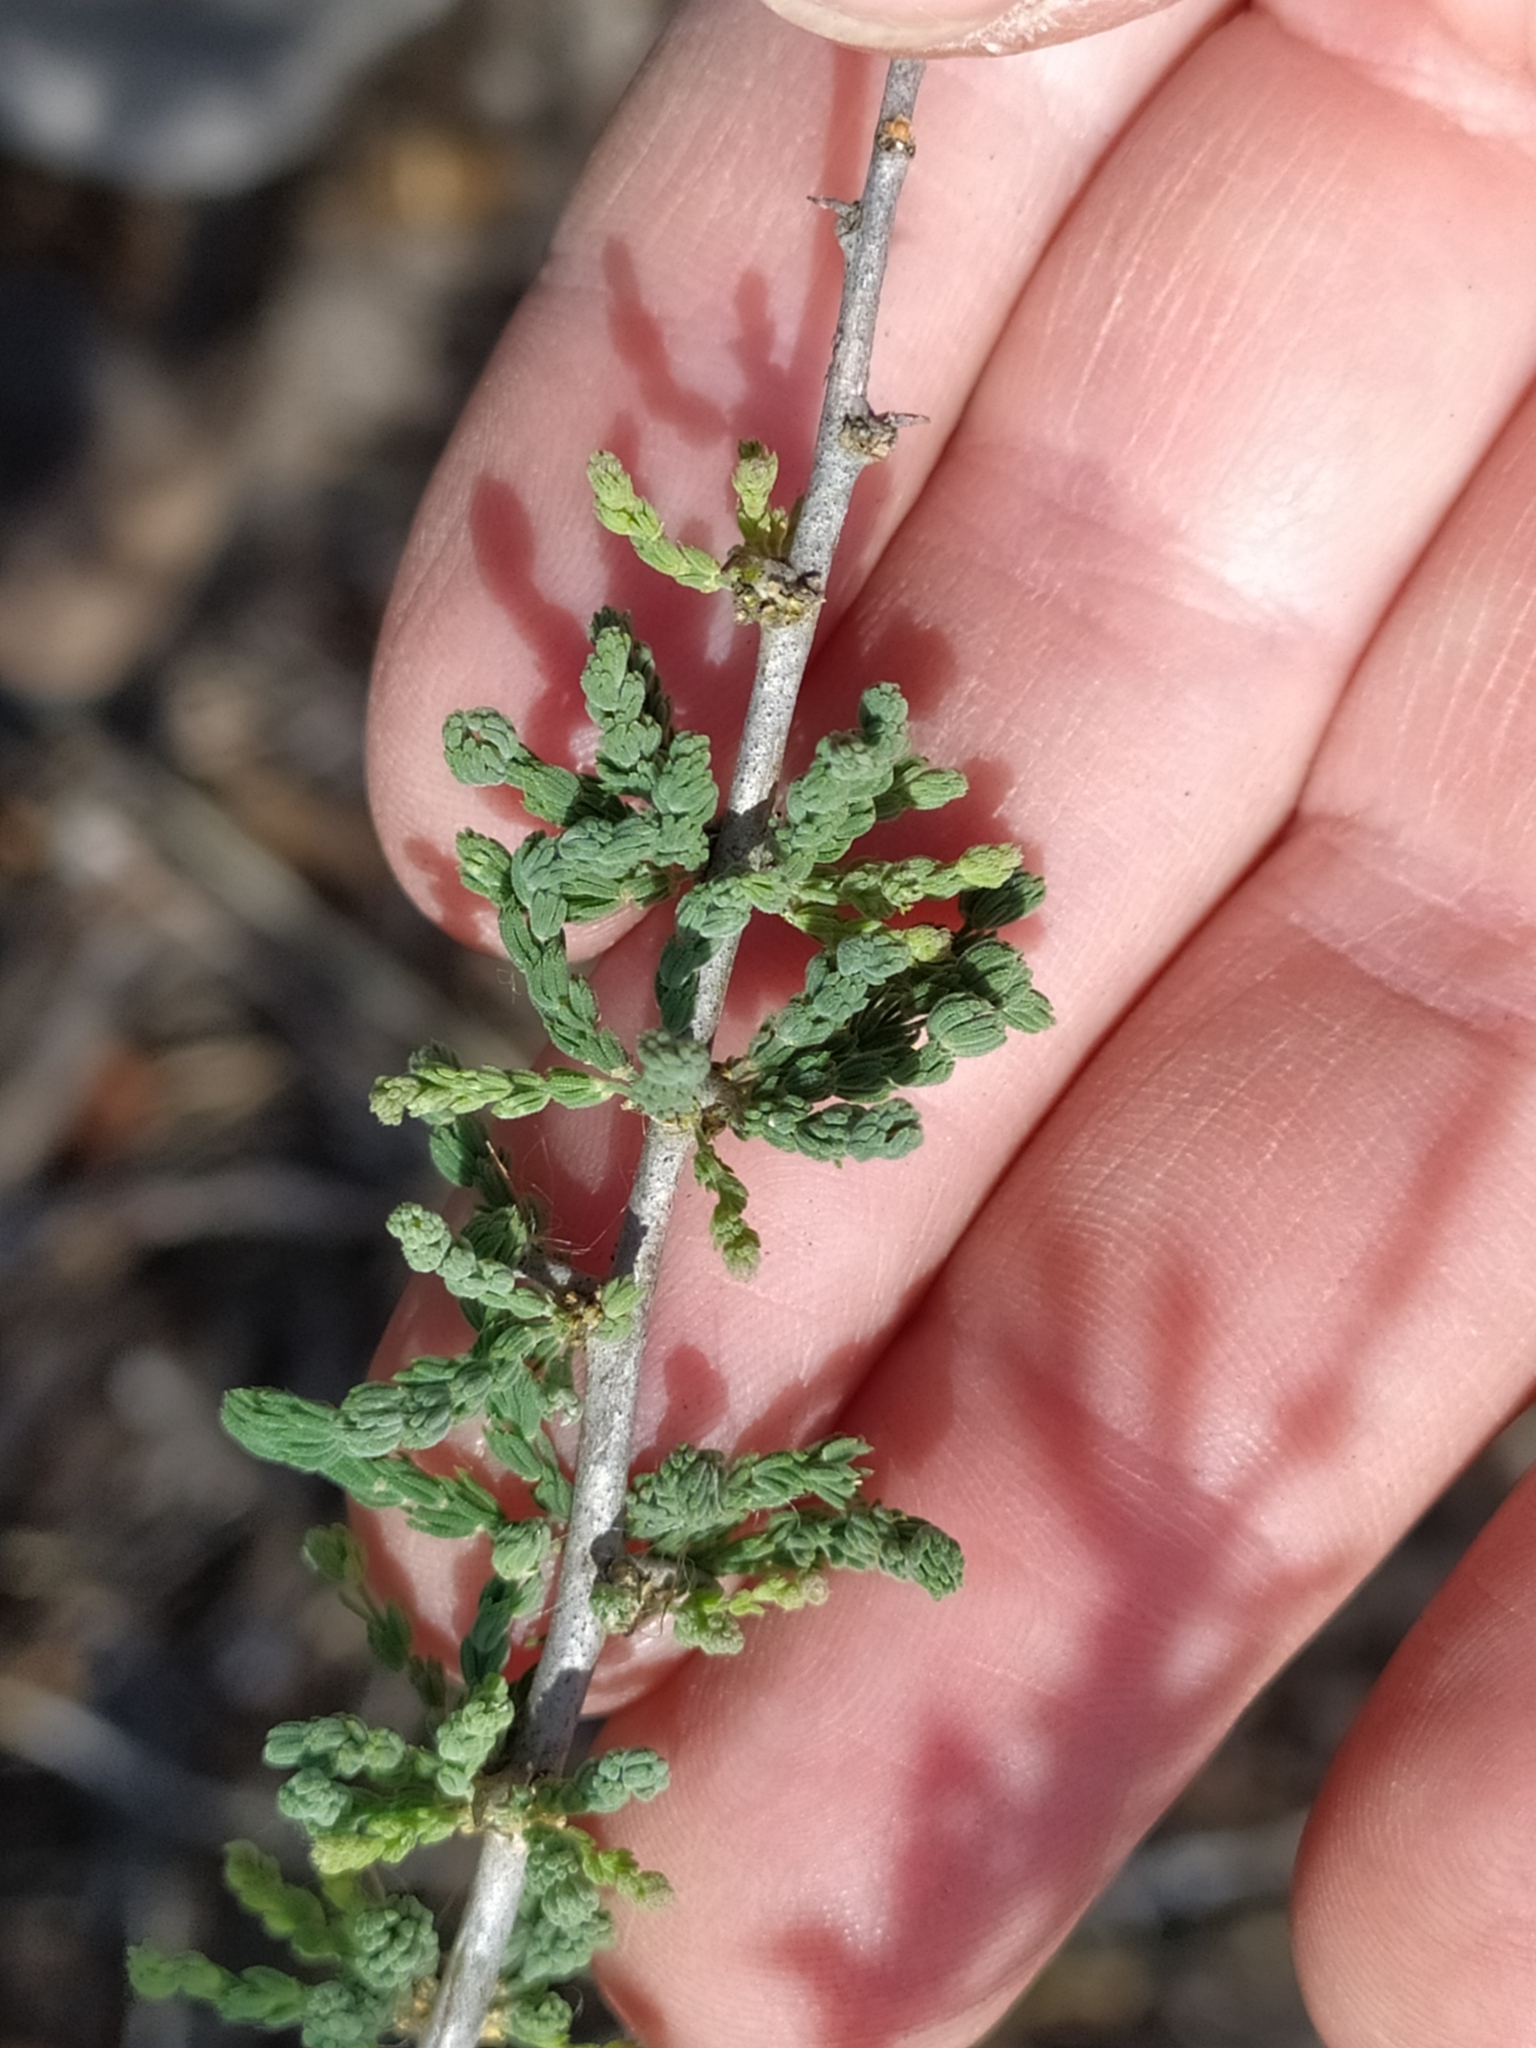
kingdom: Plantae
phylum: Tracheophyta
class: Liliopsida
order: Asparagales
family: Asparagaceae
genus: Asparagus
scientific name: Asparagus capensis
